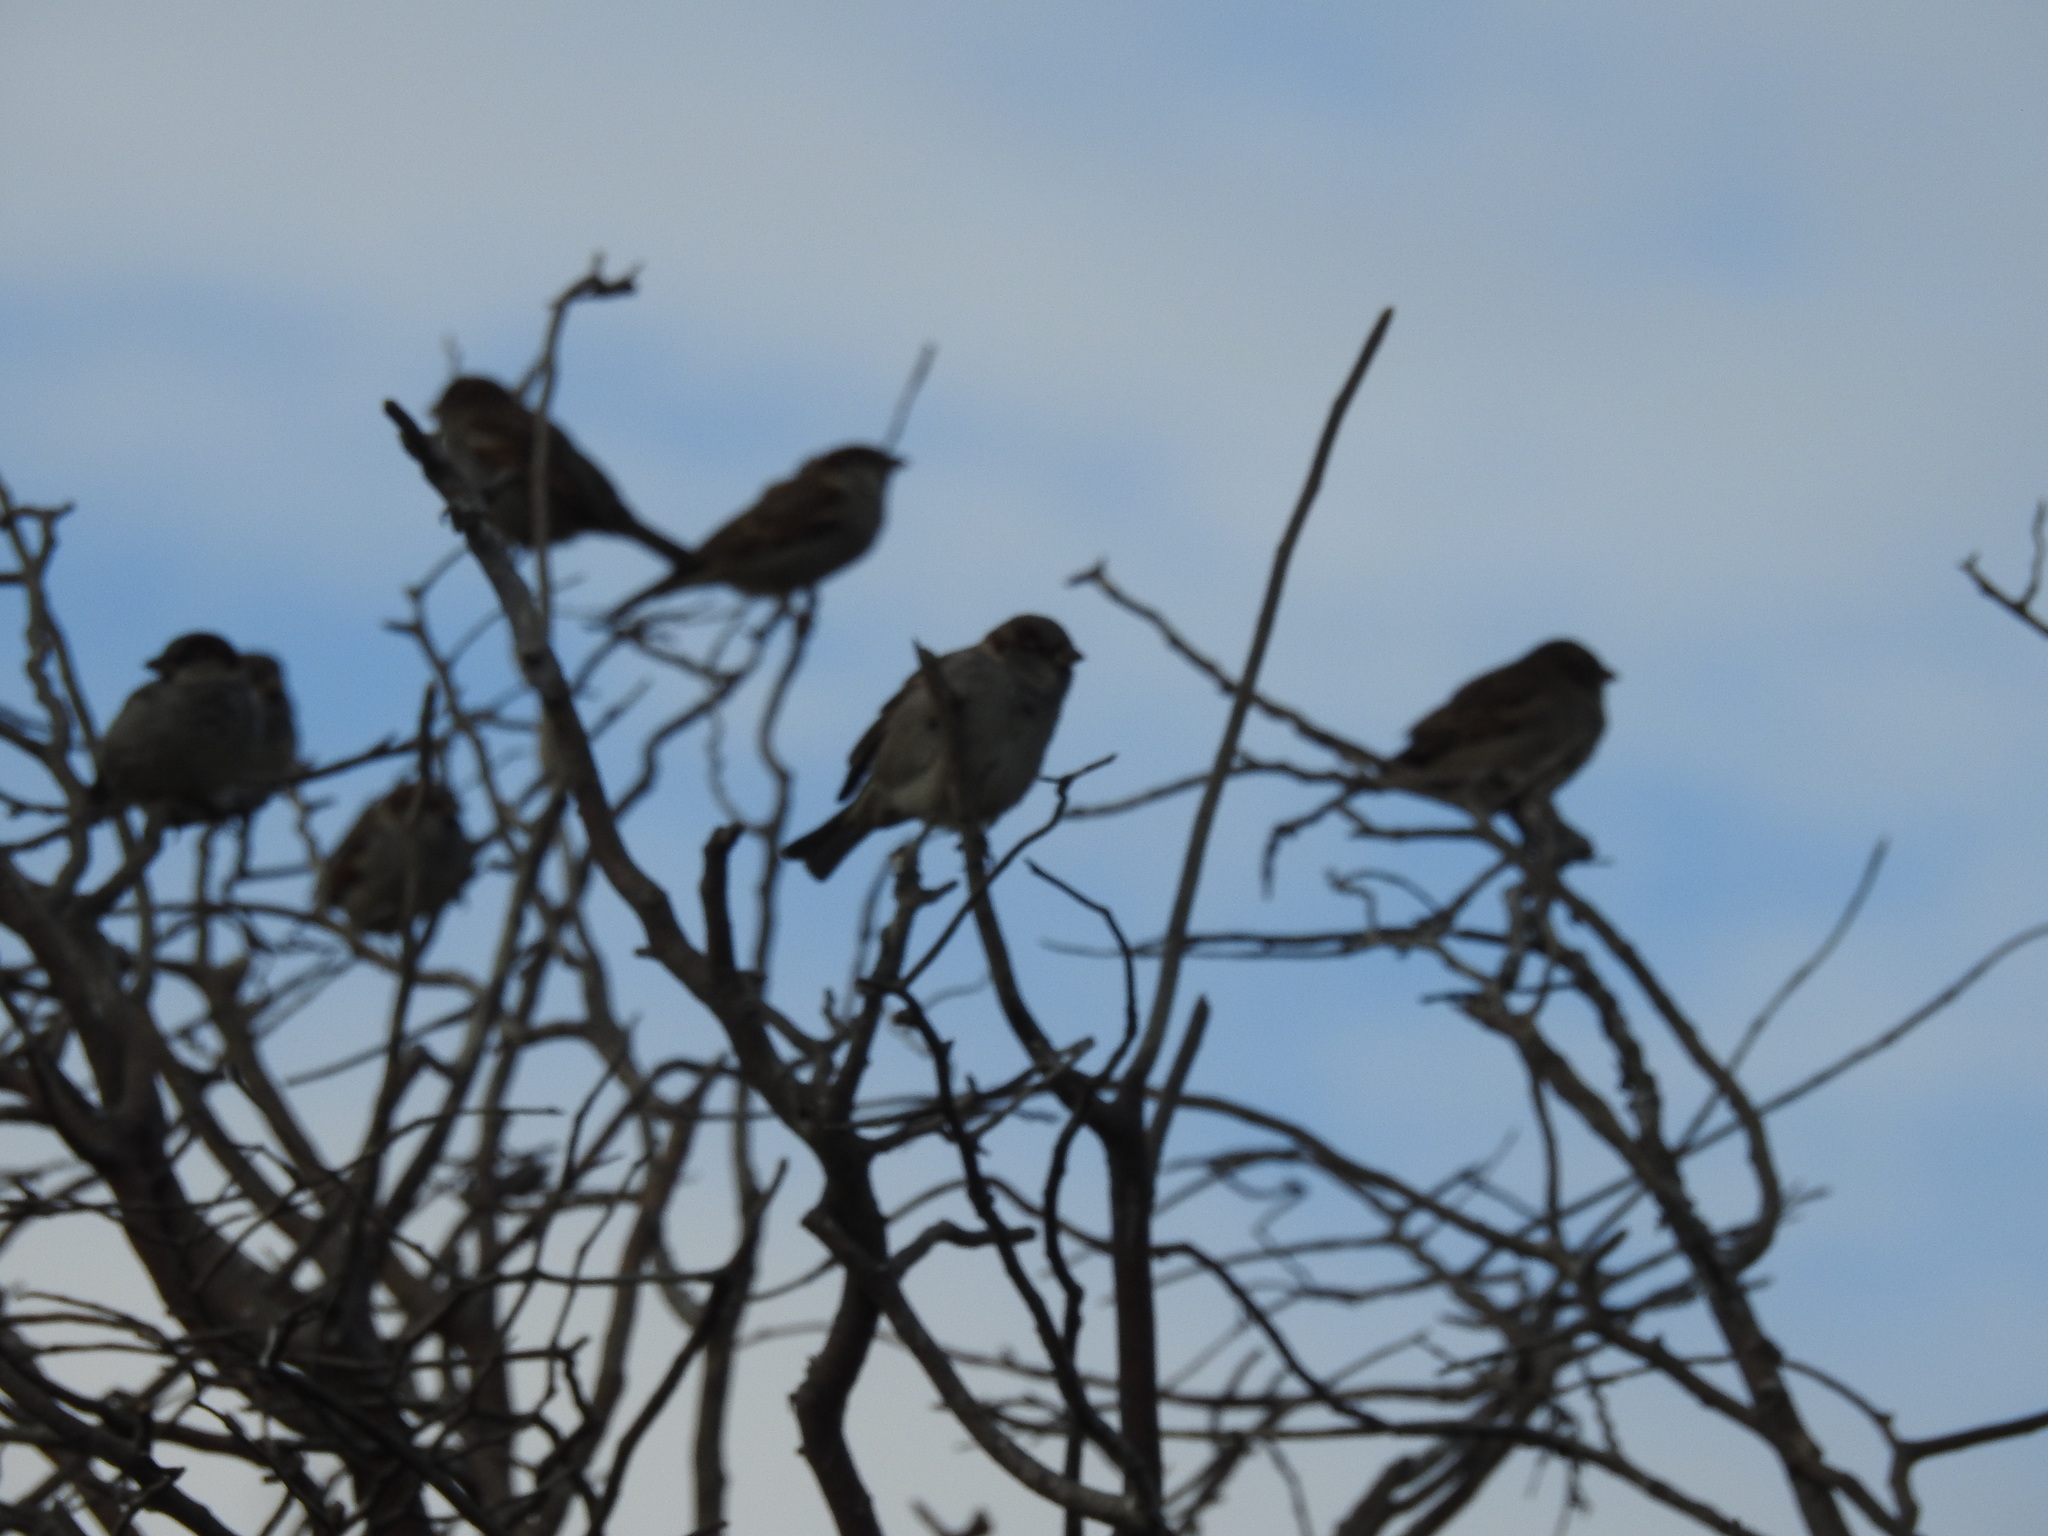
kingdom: Animalia
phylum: Chordata
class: Aves
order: Passeriformes
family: Passeridae
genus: Passer
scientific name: Passer domesticus
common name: House sparrow
